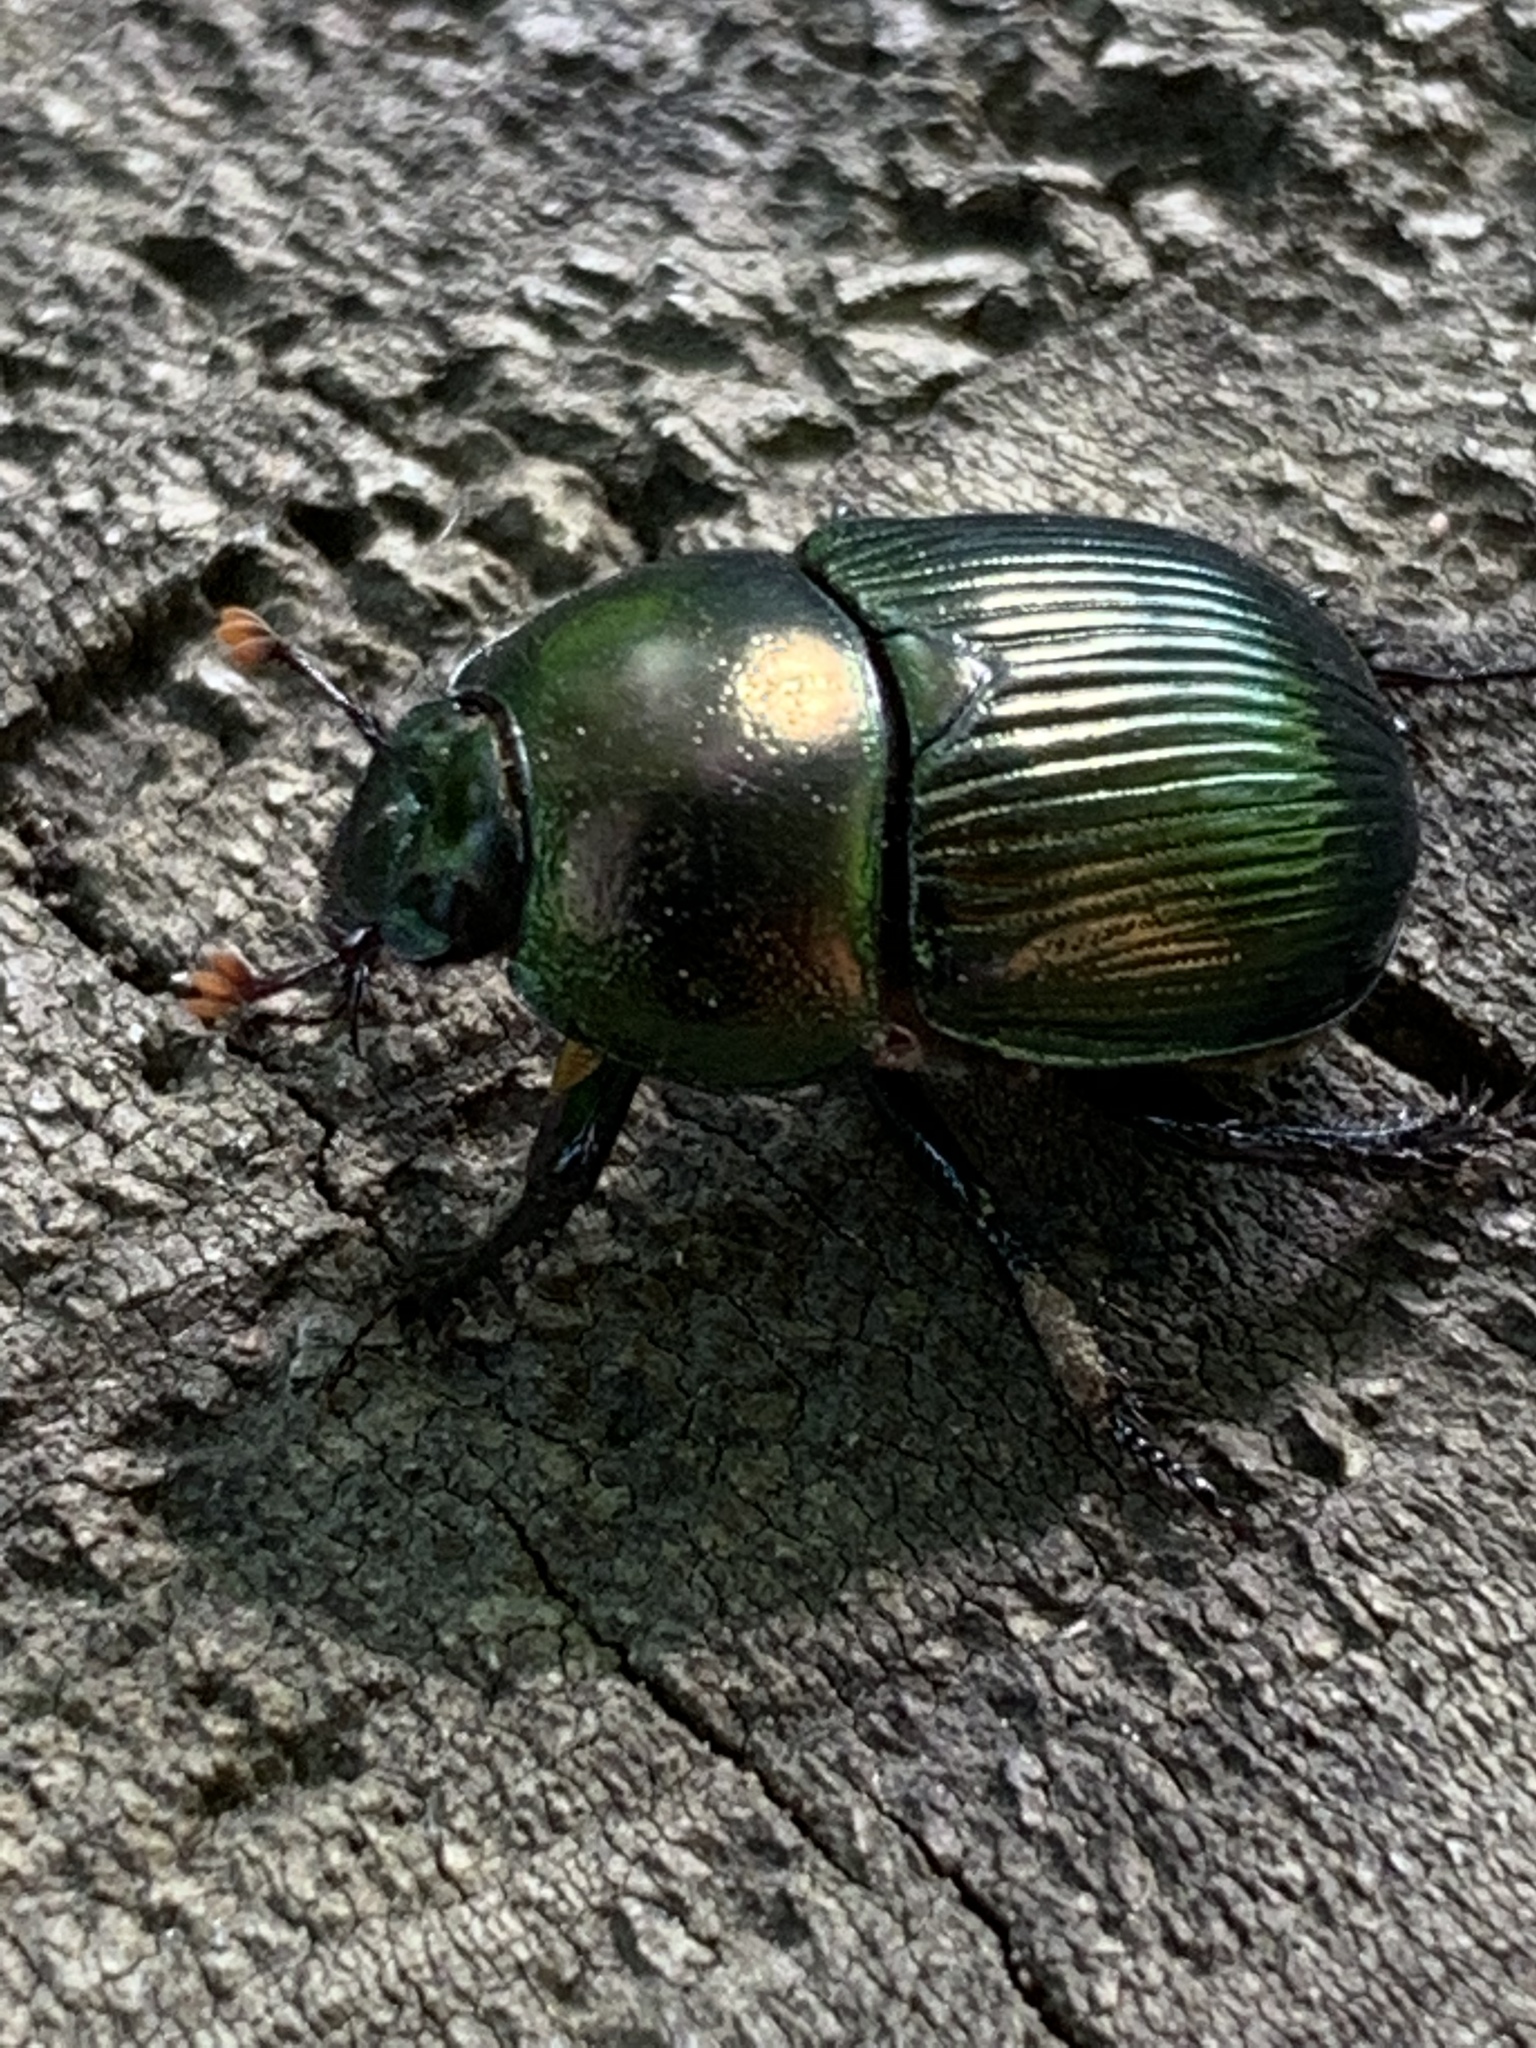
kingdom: Animalia
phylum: Arthropoda
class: Insecta
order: Coleoptera
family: Geotrupidae
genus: Geotrupes
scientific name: Geotrupes splendidus
